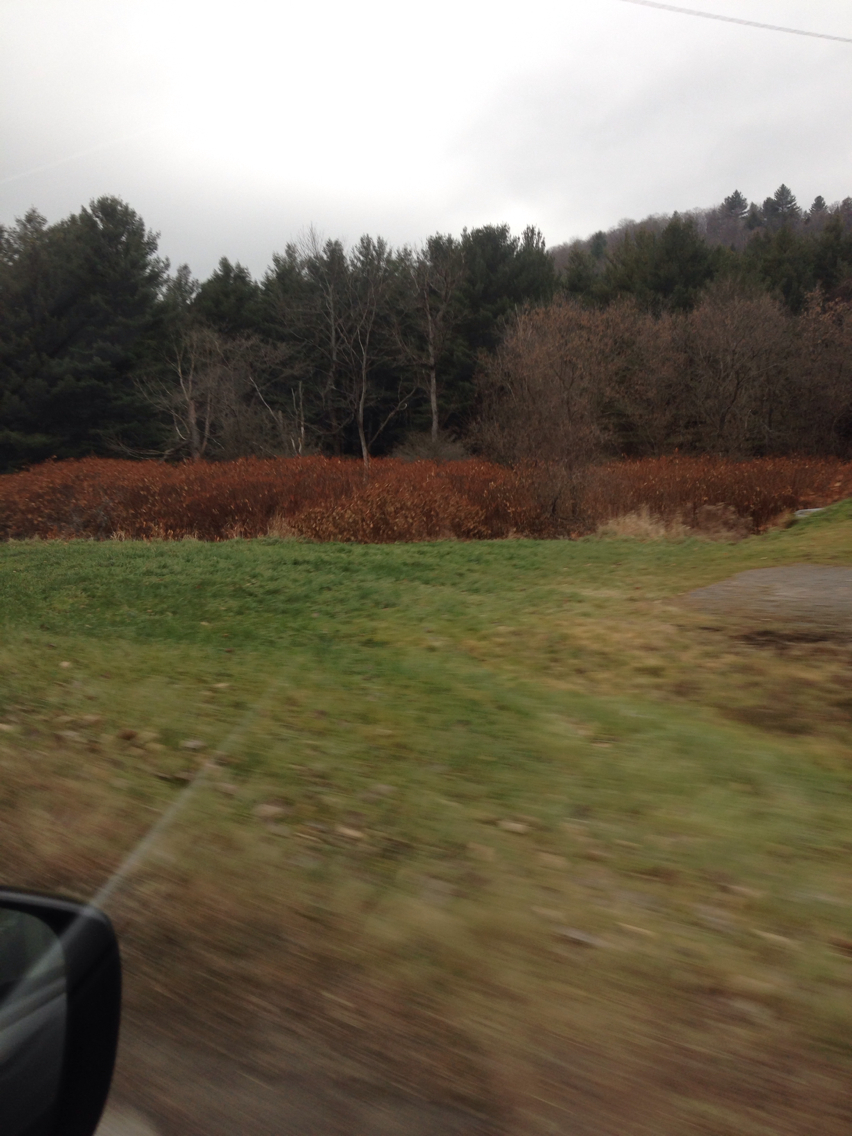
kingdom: Plantae
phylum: Tracheophyta
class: Magnoliopsida
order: Caryophyllales
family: Polygonaceae
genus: Reynoutria
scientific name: Reynoutria japonica
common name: Japanese knotweed
